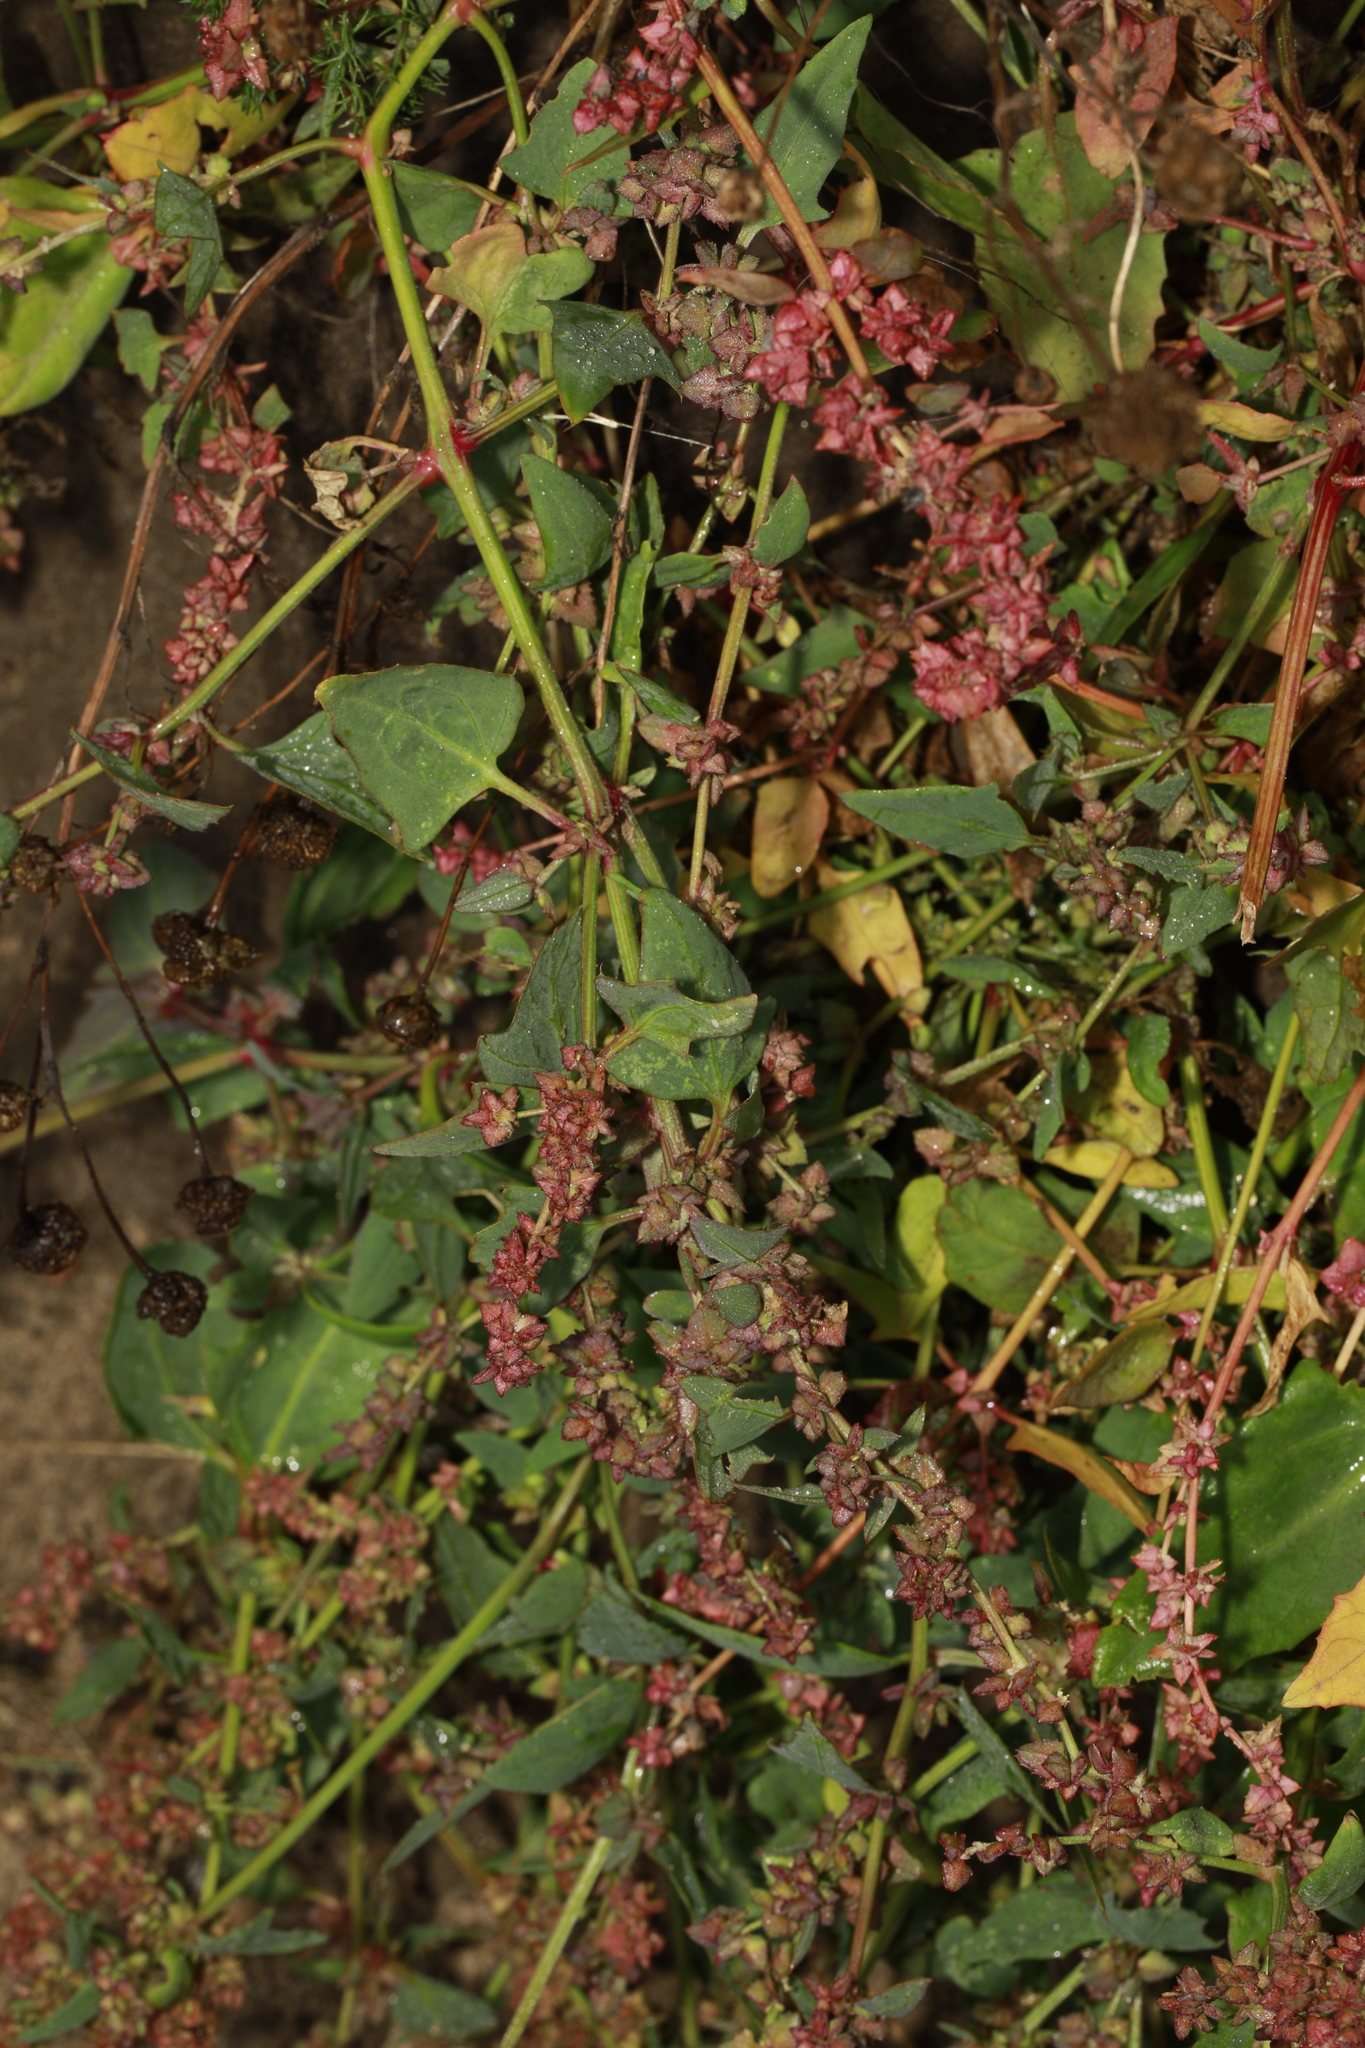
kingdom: Plantae
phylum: Tracheophyta
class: Magnoliopsida
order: Caryophyllales
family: Amaranthaceae
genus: Atriplex
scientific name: Atriplex prostrata
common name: Spear-leaved orache
